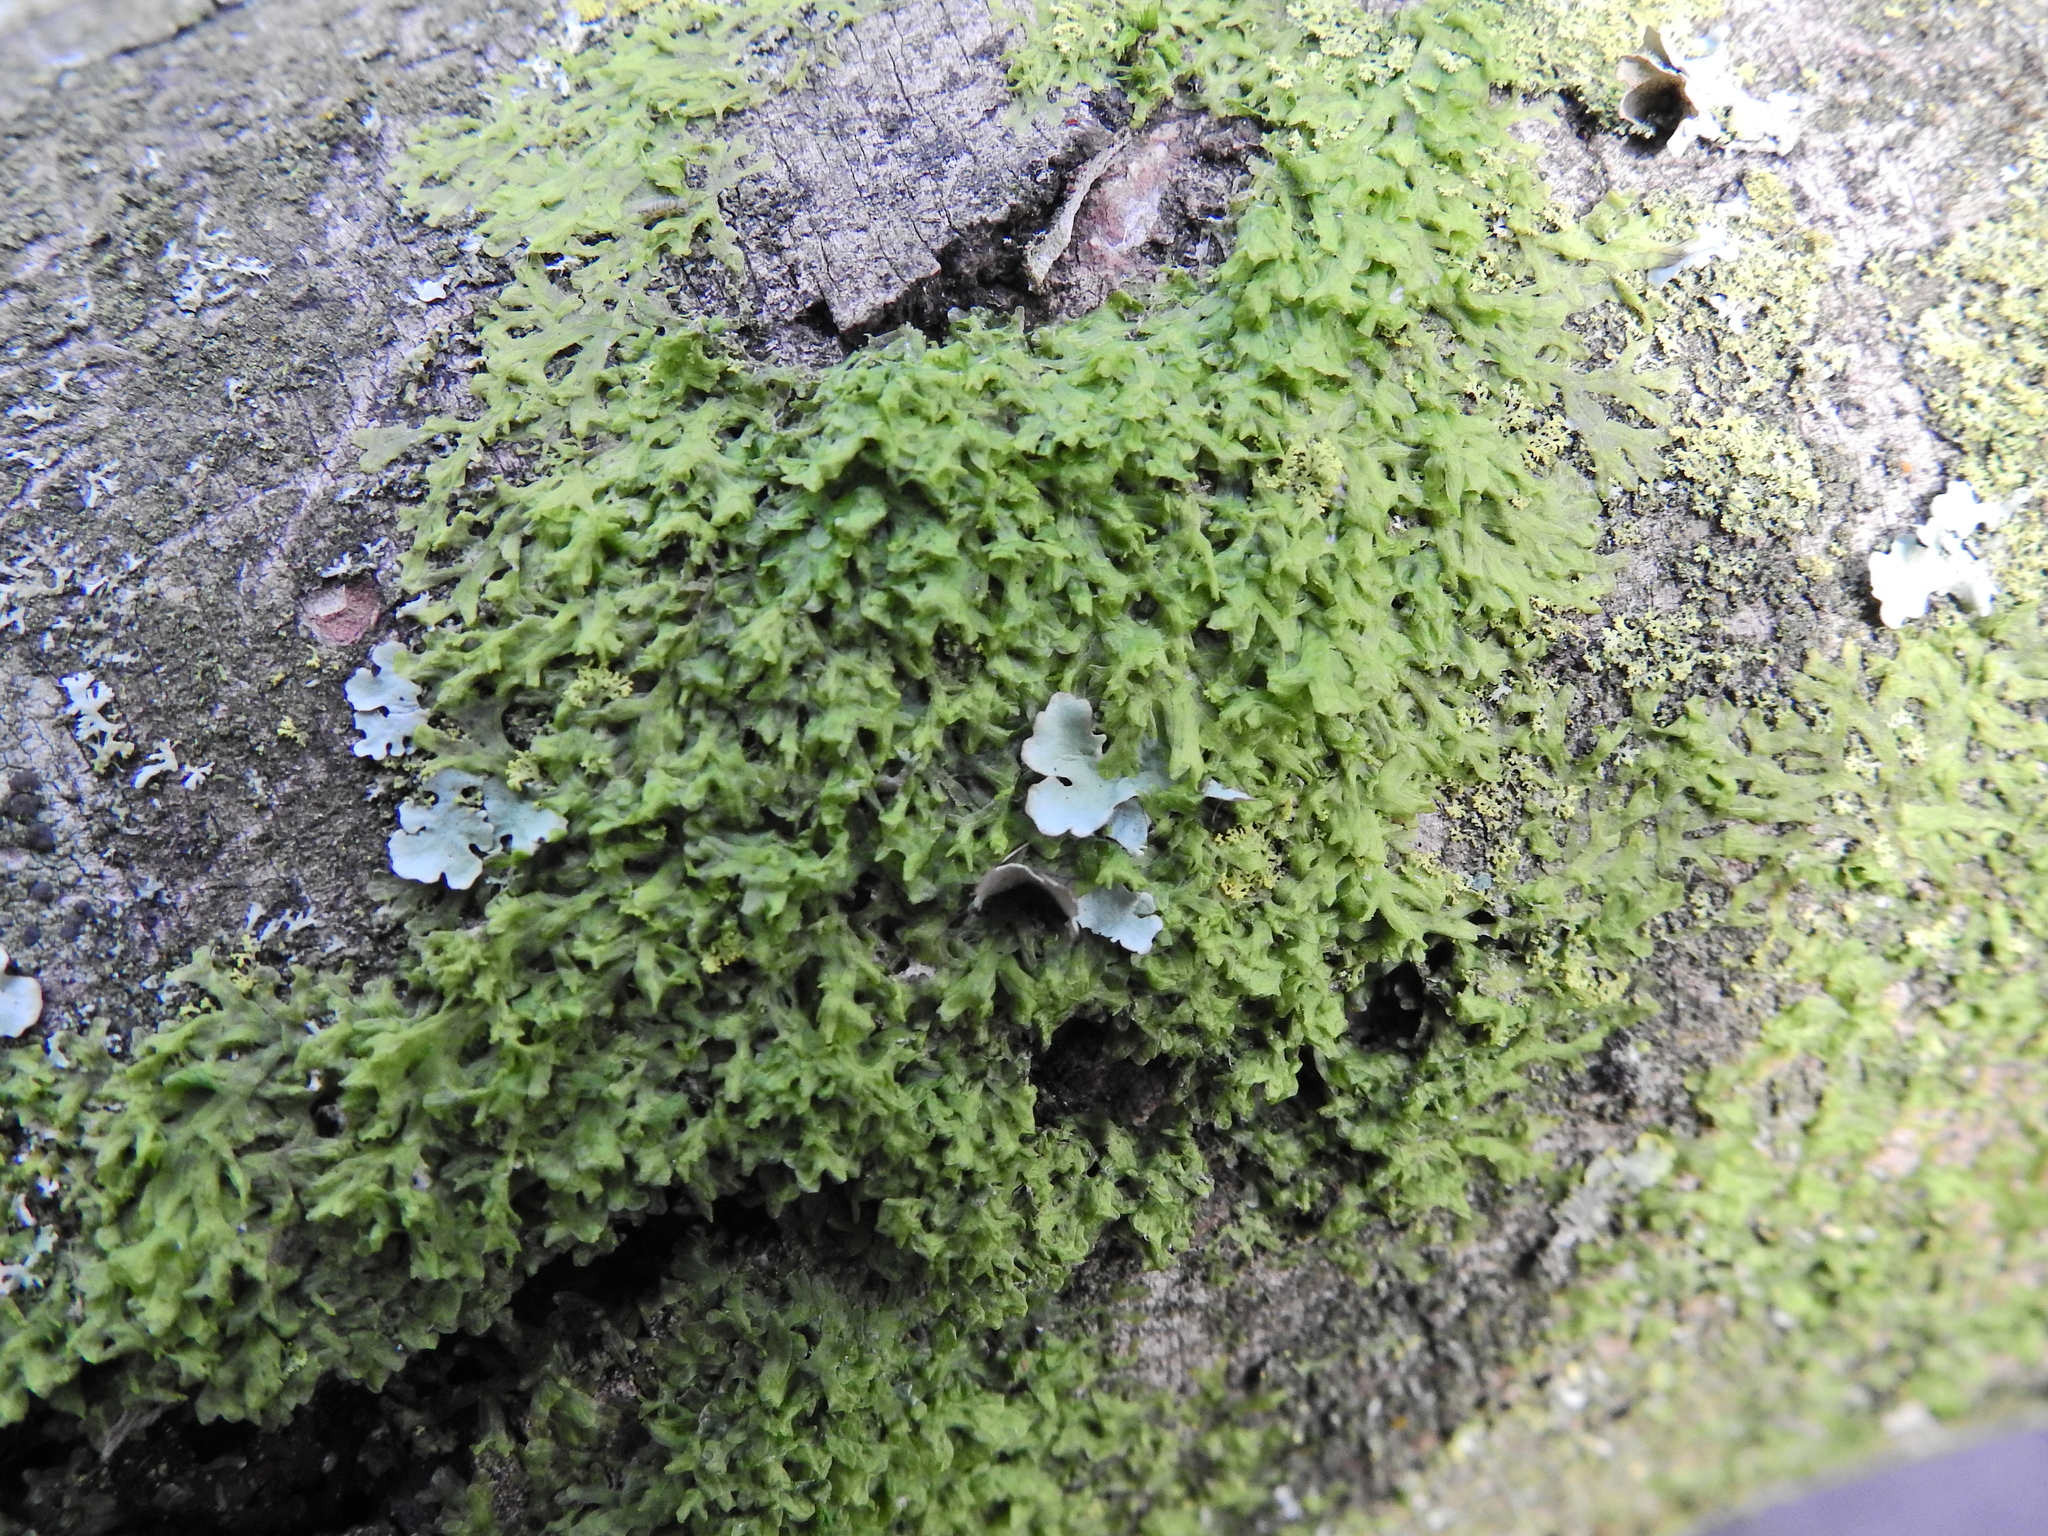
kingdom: Plantae
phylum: Marchantiophyta
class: Jungermanniopsida
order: Metzgeriales
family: Metzgeriaceae
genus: Metzgeria
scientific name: Metzgeria furcata
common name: Forked veilwort
